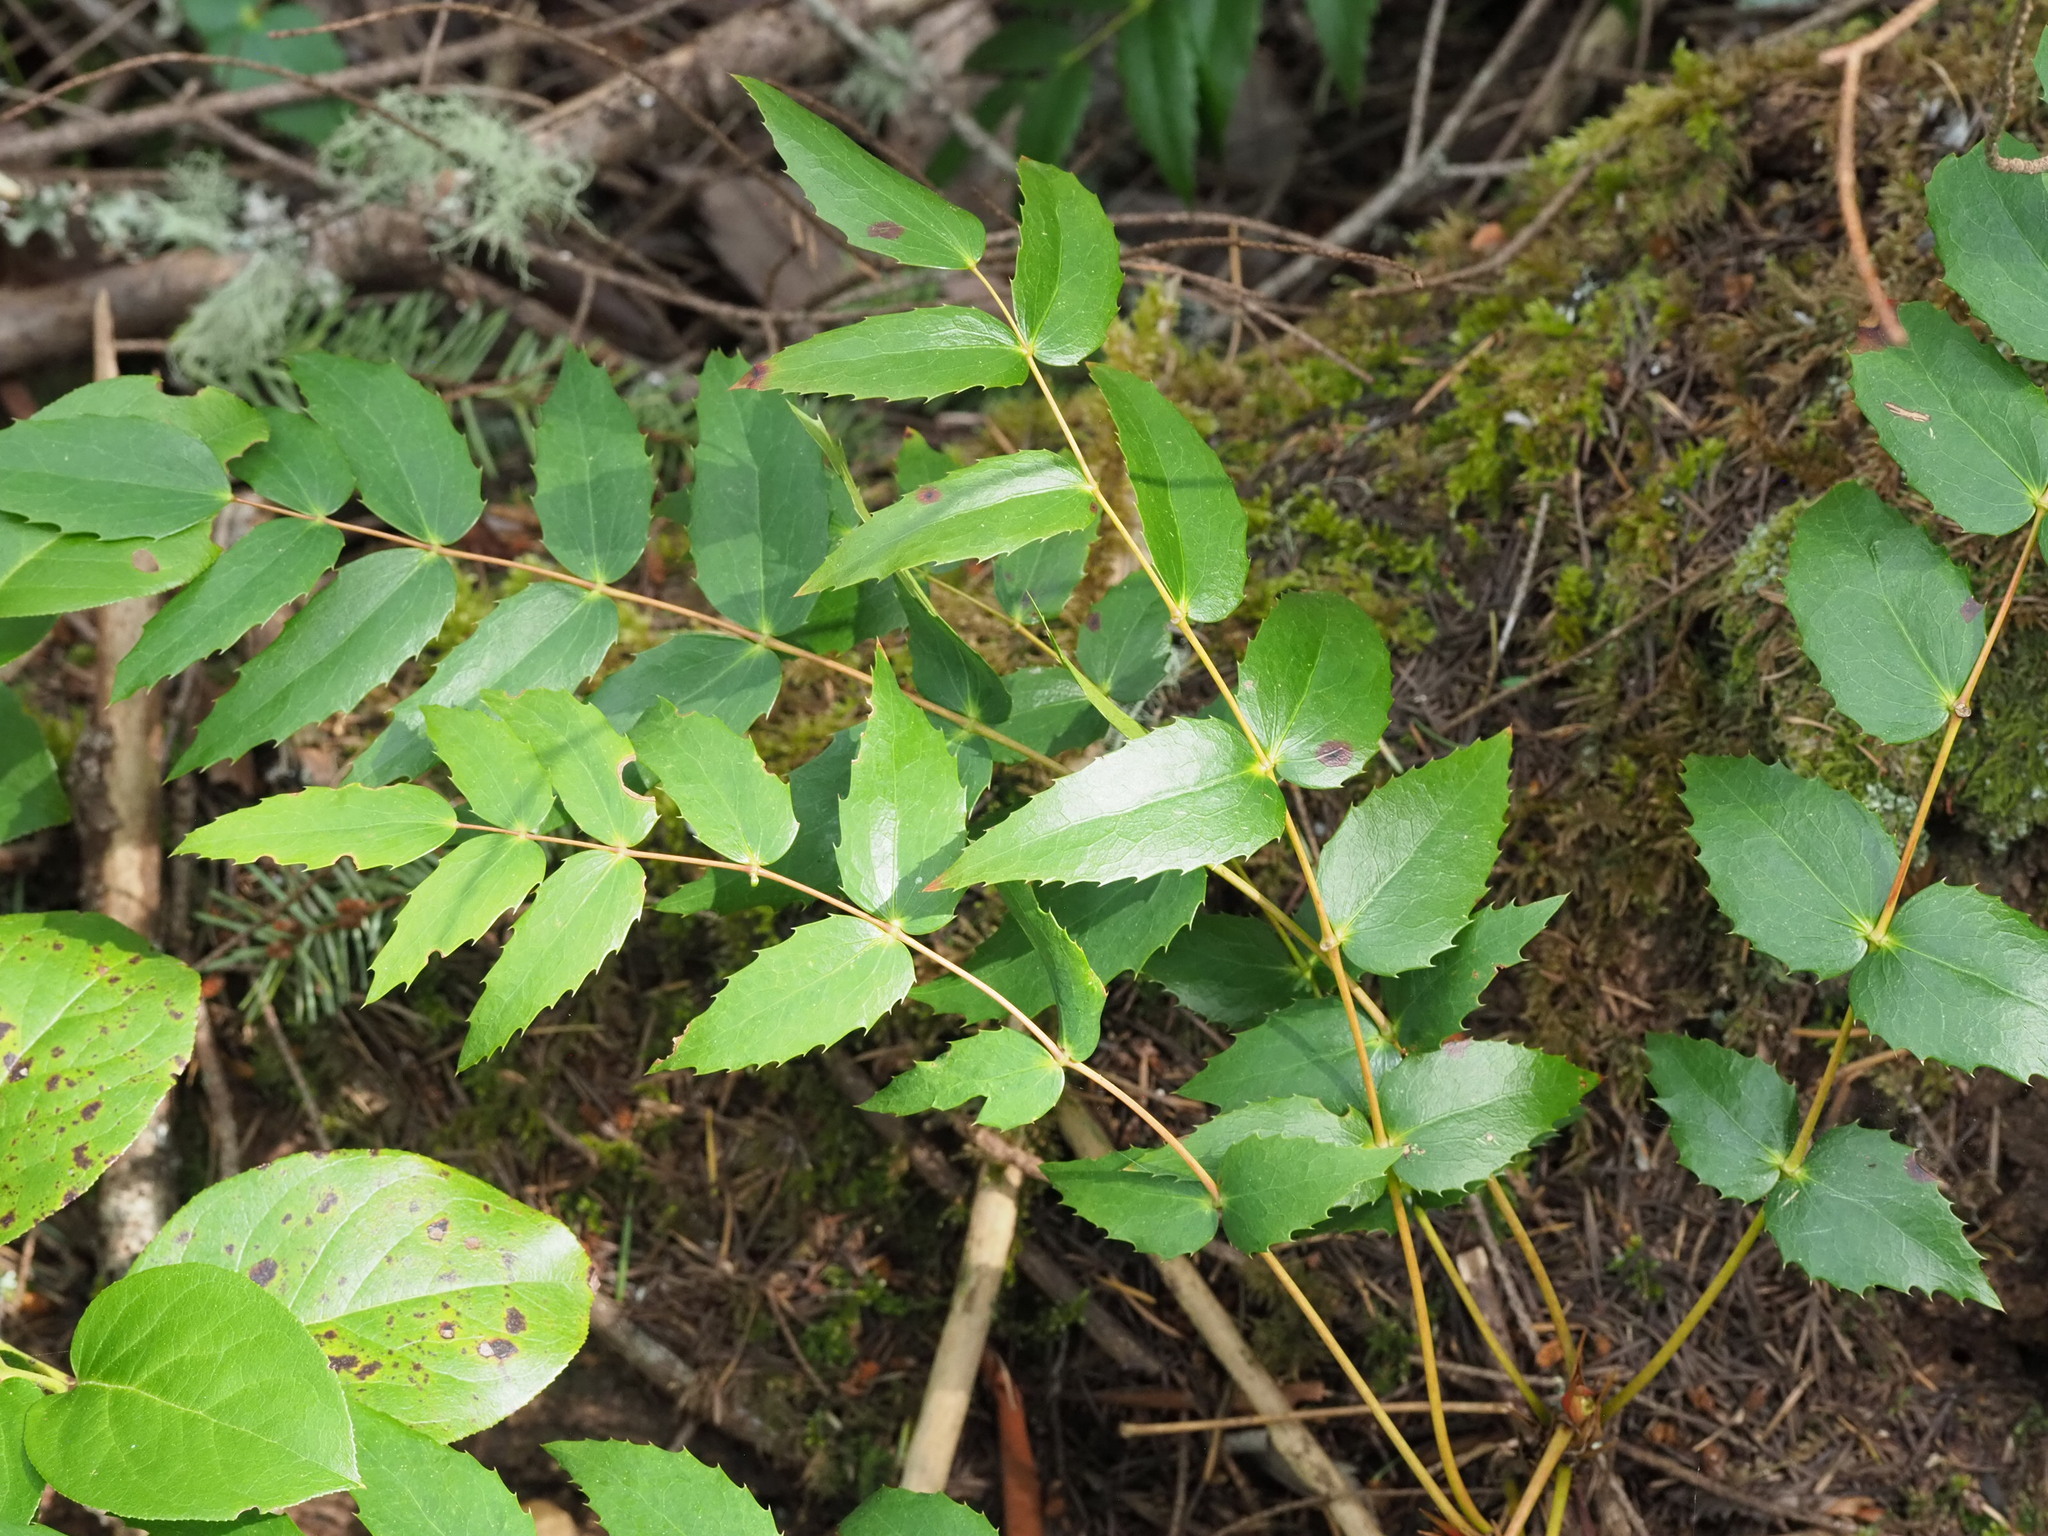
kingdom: Plantae
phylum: Tracheophyta
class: Magnoliopsida
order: Ranunculales
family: Berberidaceae
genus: Mahonia
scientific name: Mahonia nervosa
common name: Cascade oregon-grape
